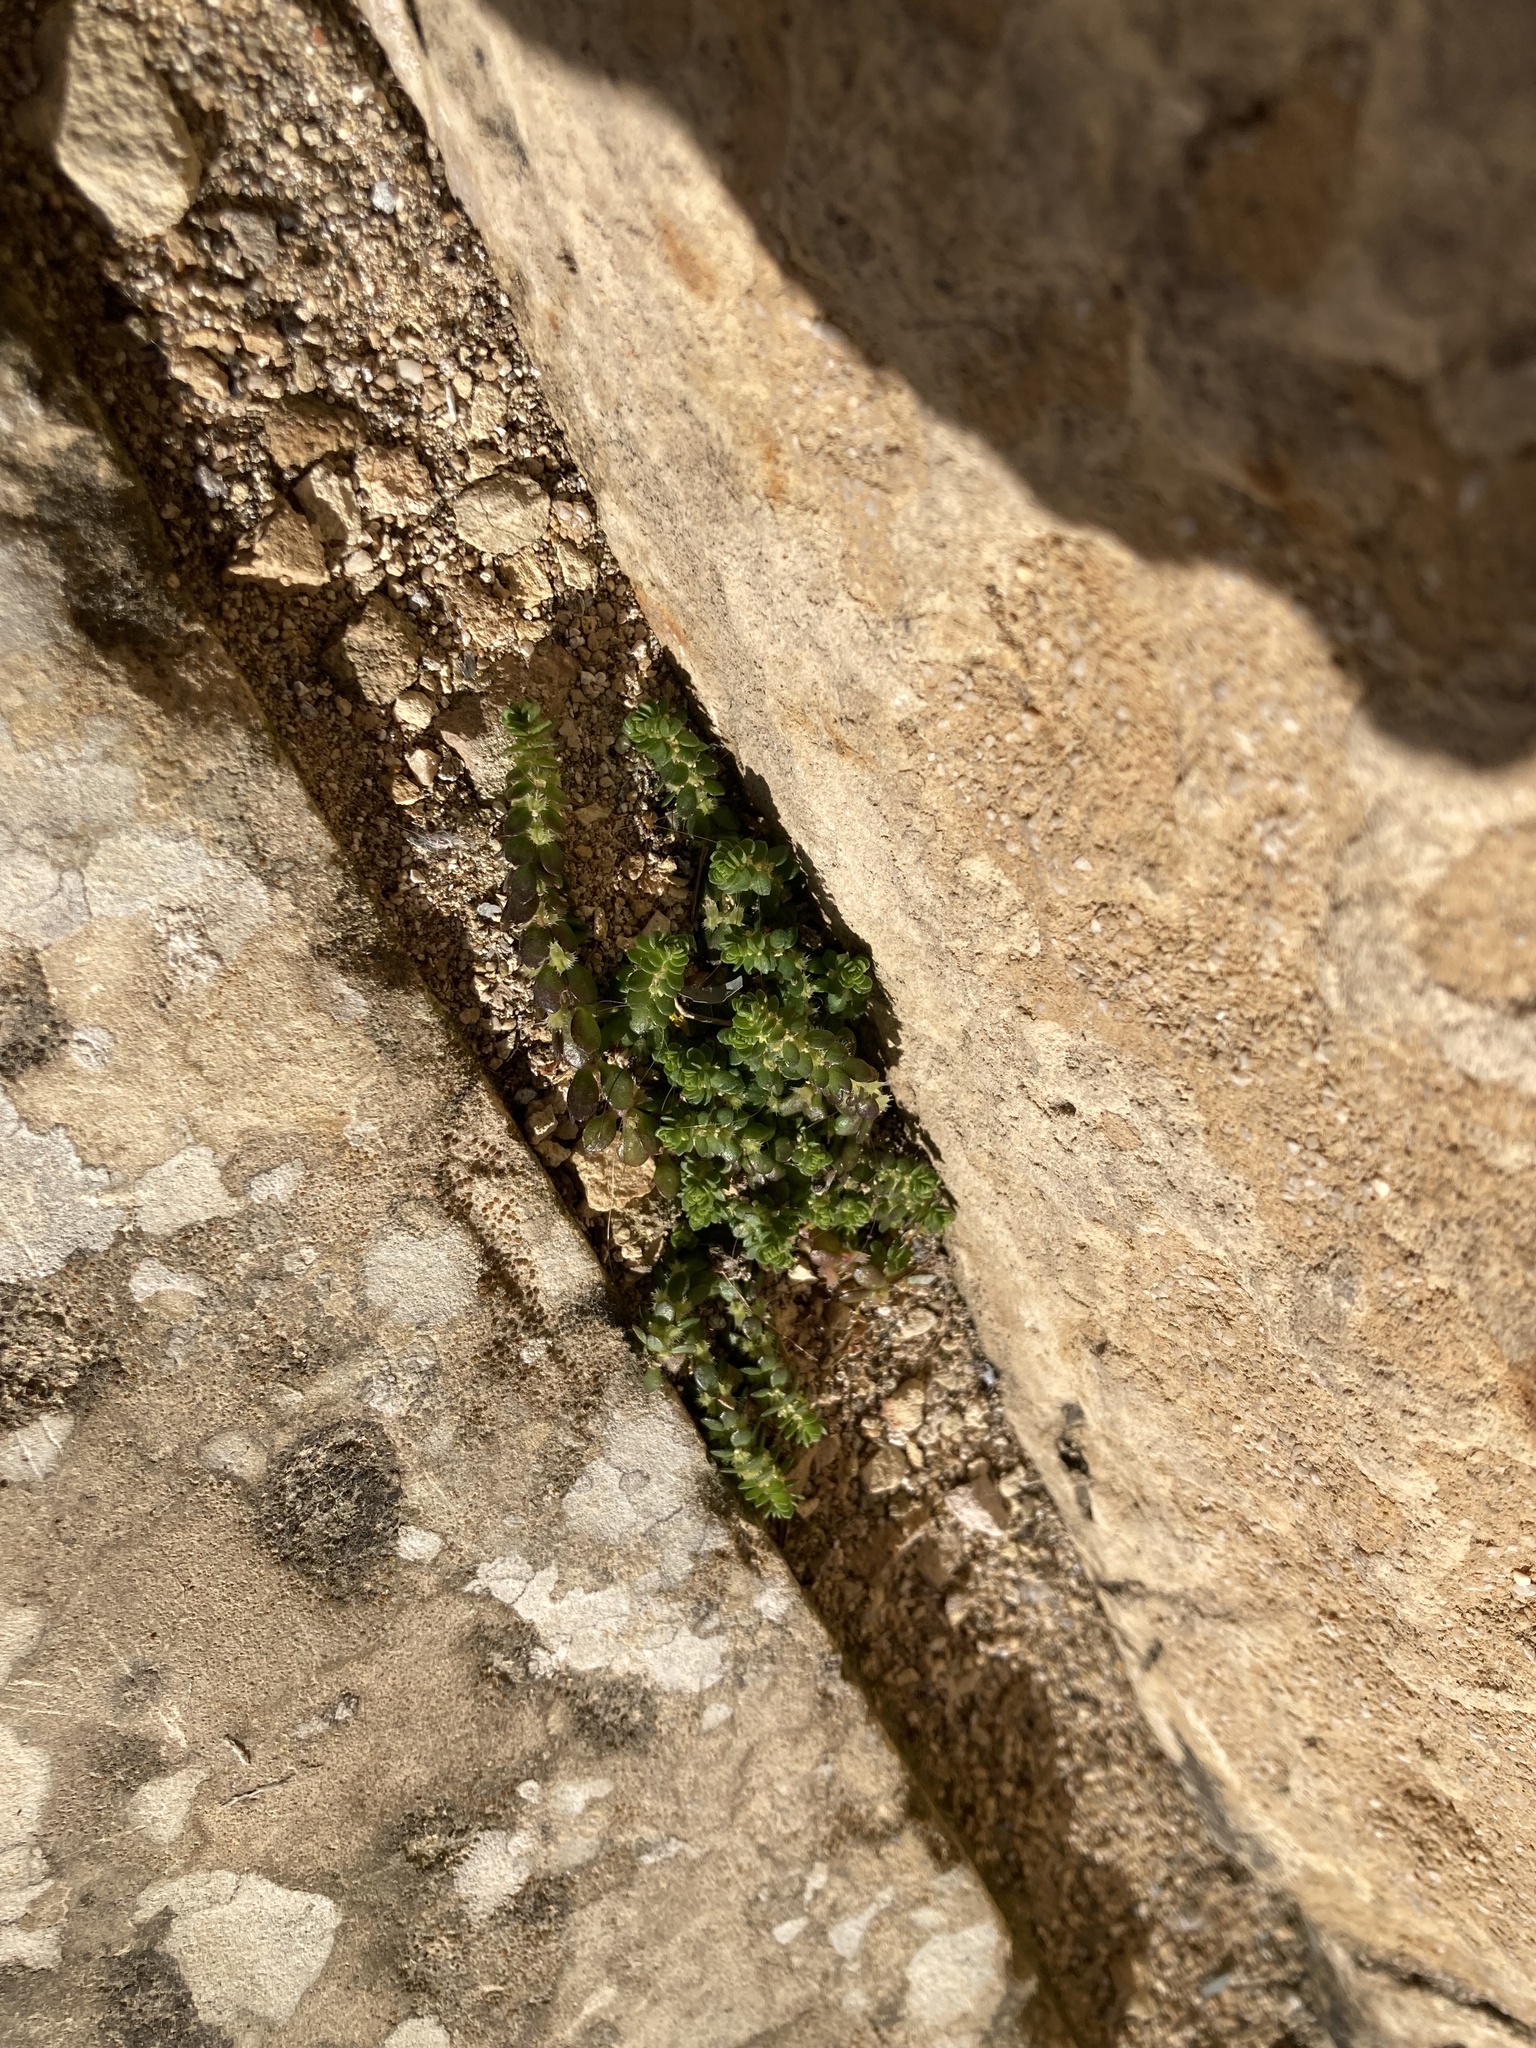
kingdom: Plantae
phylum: Tracheophyta
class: Magnoliopsida
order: Gentianales
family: Rubiaceae
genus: Valantia
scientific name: Valantia muralis
